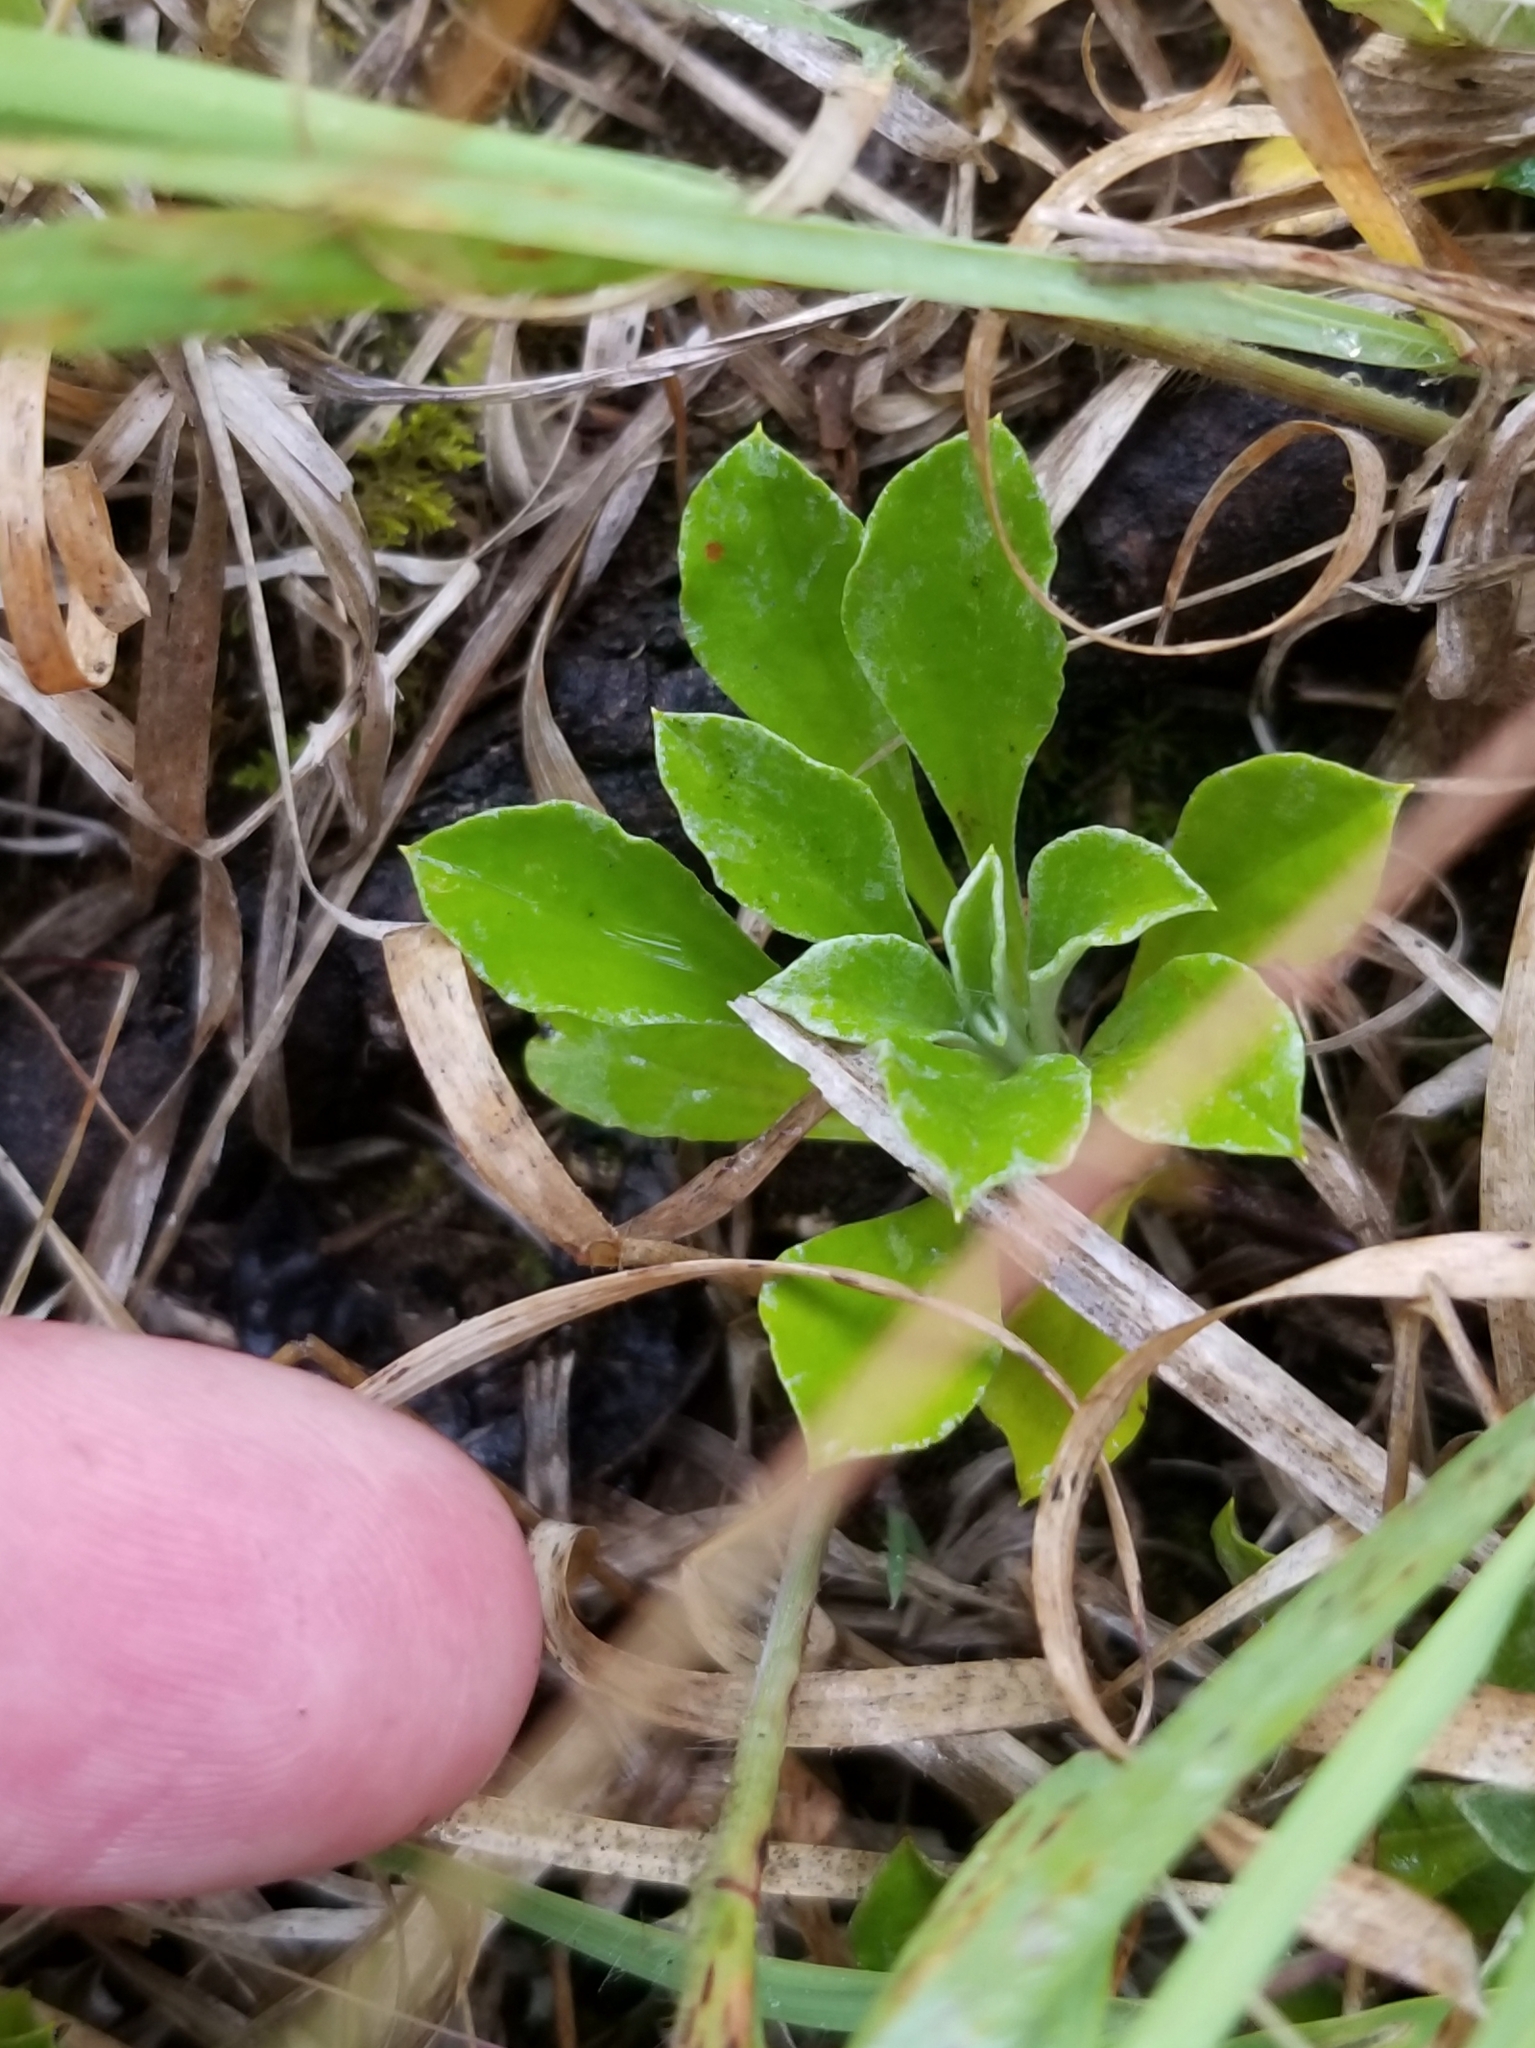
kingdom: Plantae
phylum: Tracheophyta
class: Magnoliopsida
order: Asterales
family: Asteraceae
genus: Antennaria
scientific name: Antennaria howellii
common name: Howell's pussytoes
